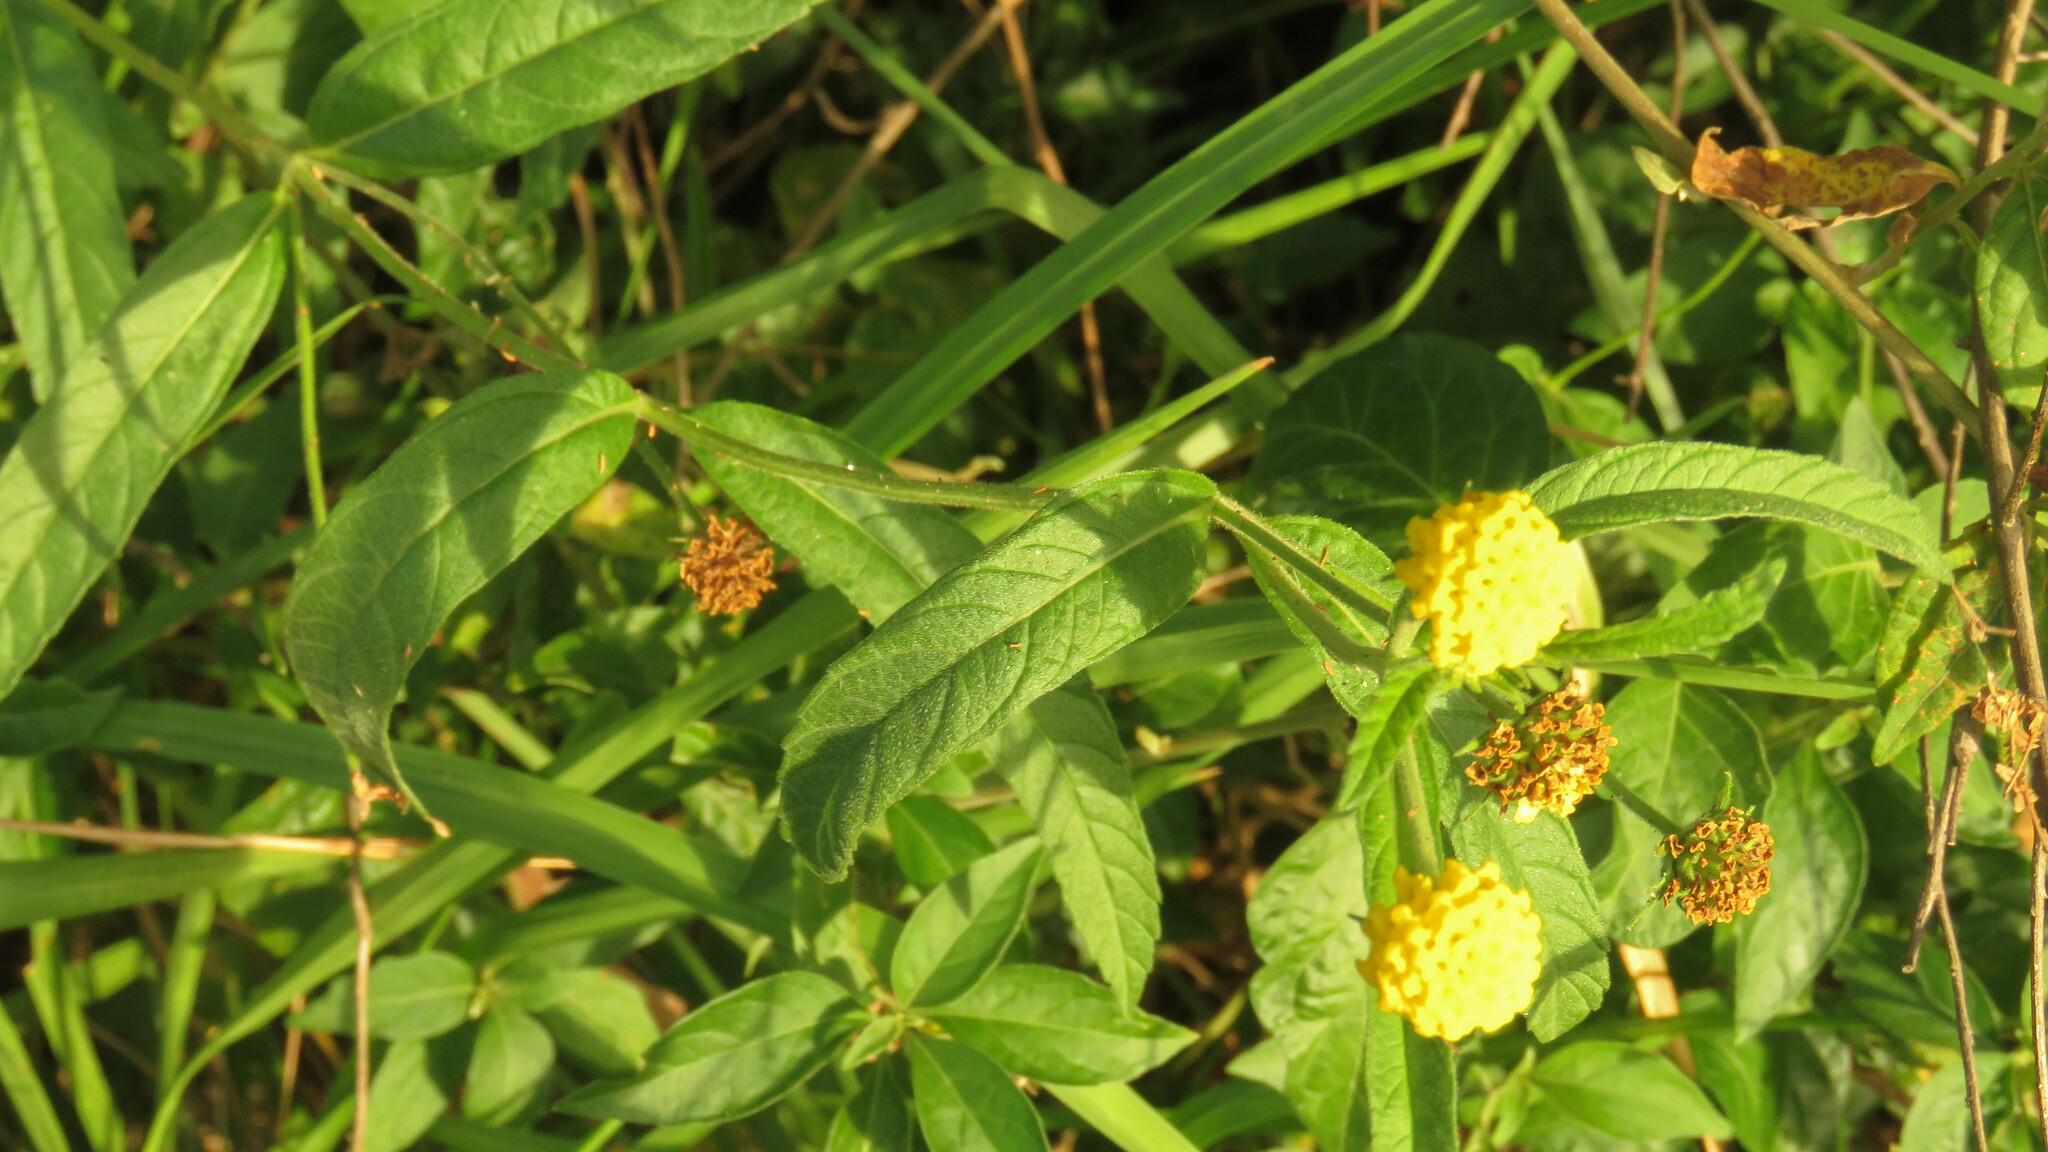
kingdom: Plantae
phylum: Tracheophyta
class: Magnoliopsida
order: Lamiales
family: Verbenaceae
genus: Lippia
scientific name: Lippia turnerifolia
